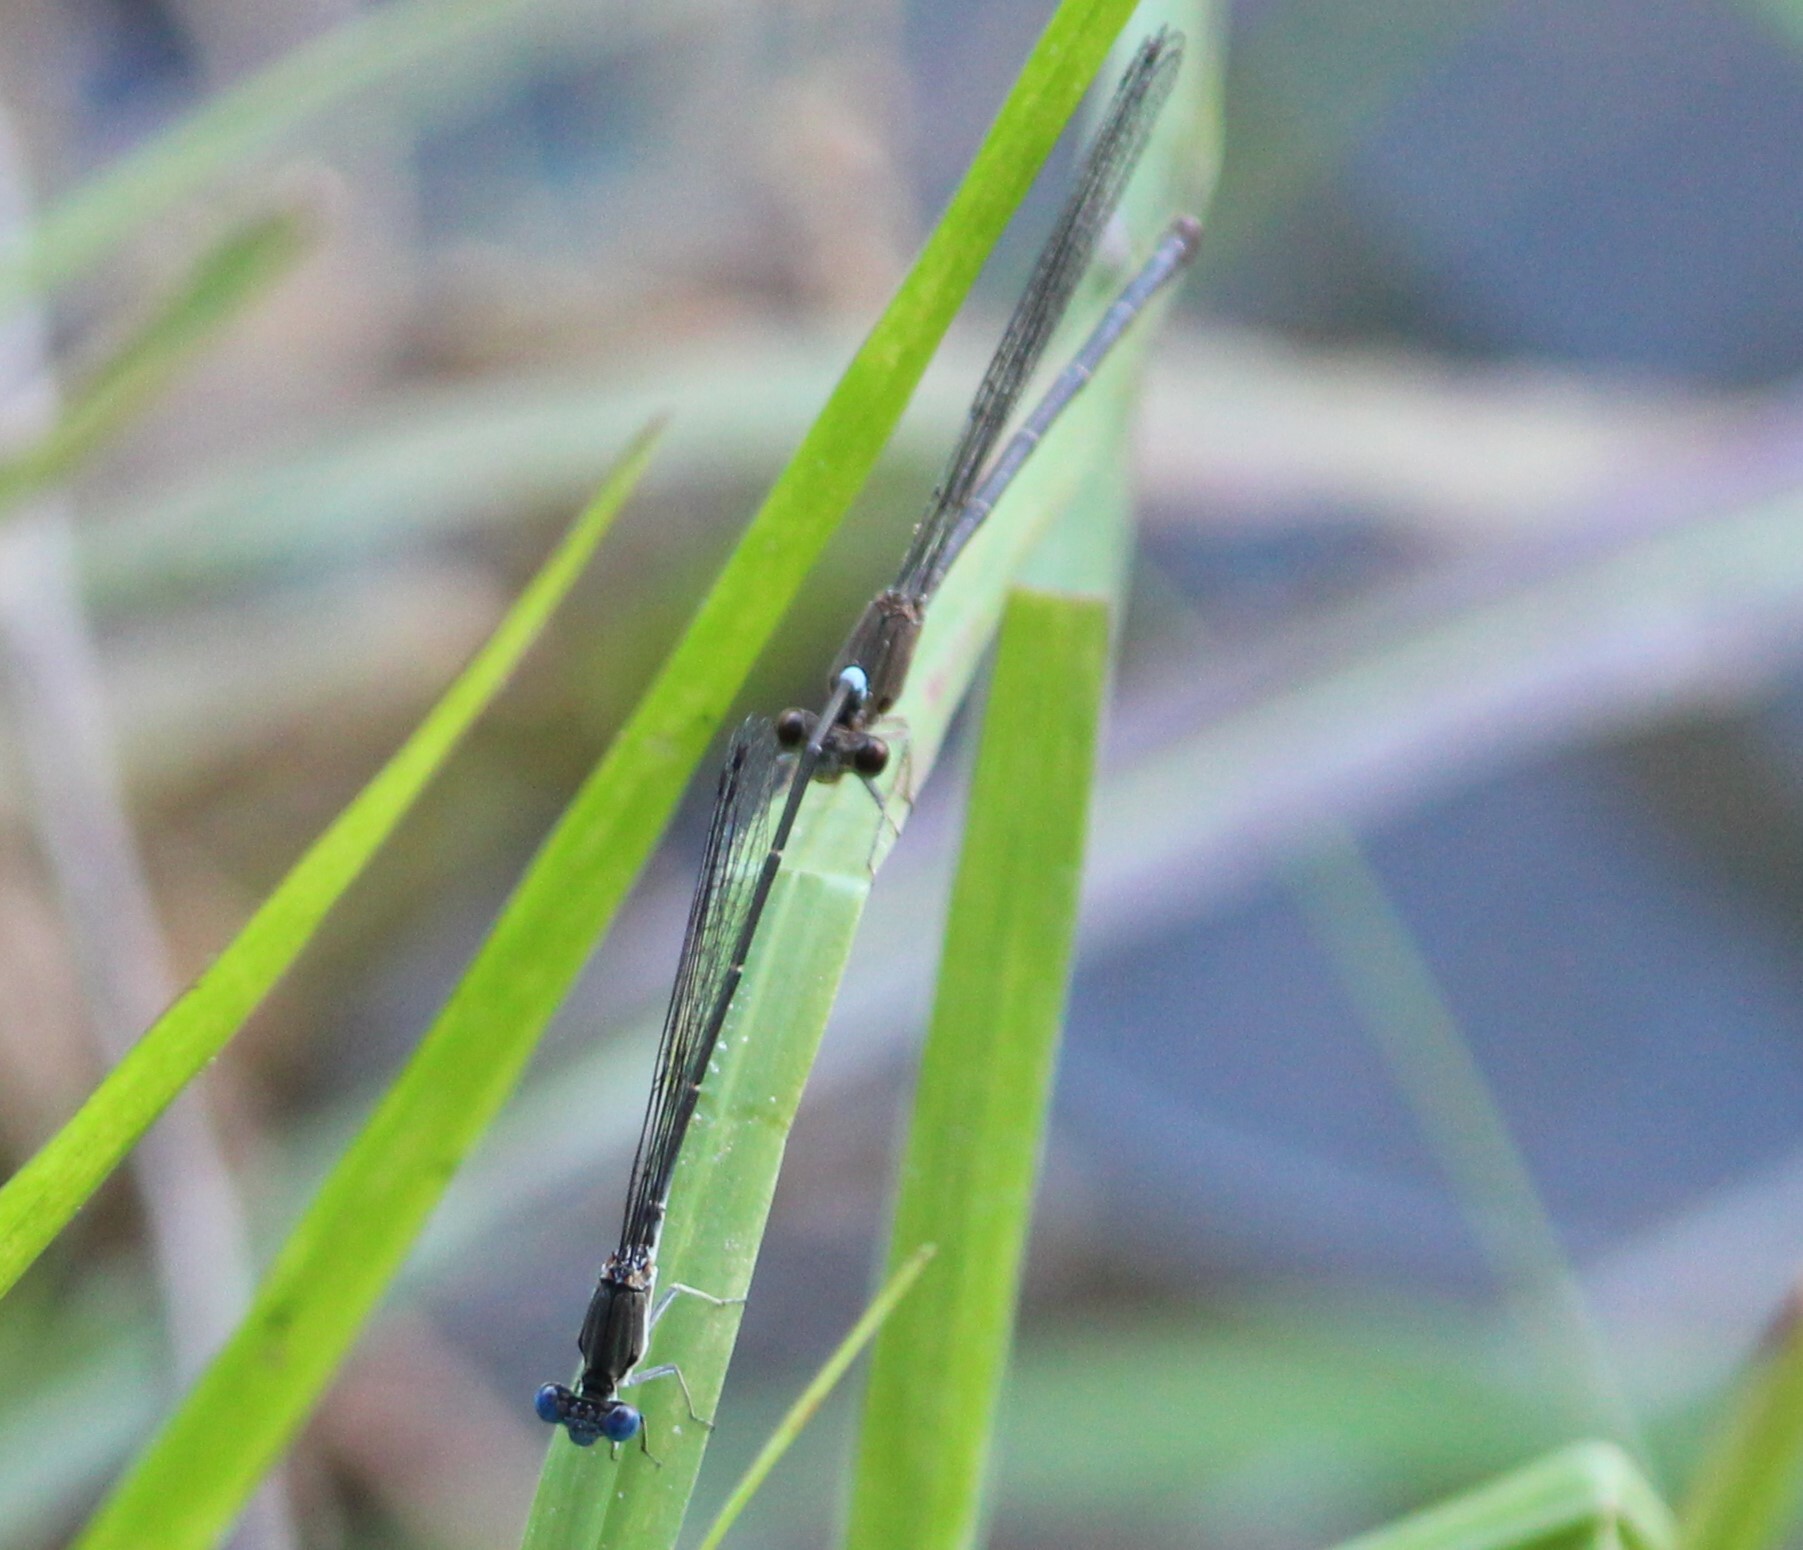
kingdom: Animalia
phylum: Arthropoda
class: Insecta
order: Odonata
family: Coenagrionidae
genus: Argia
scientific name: Argia apicalis
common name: Blue-fronted dancer
